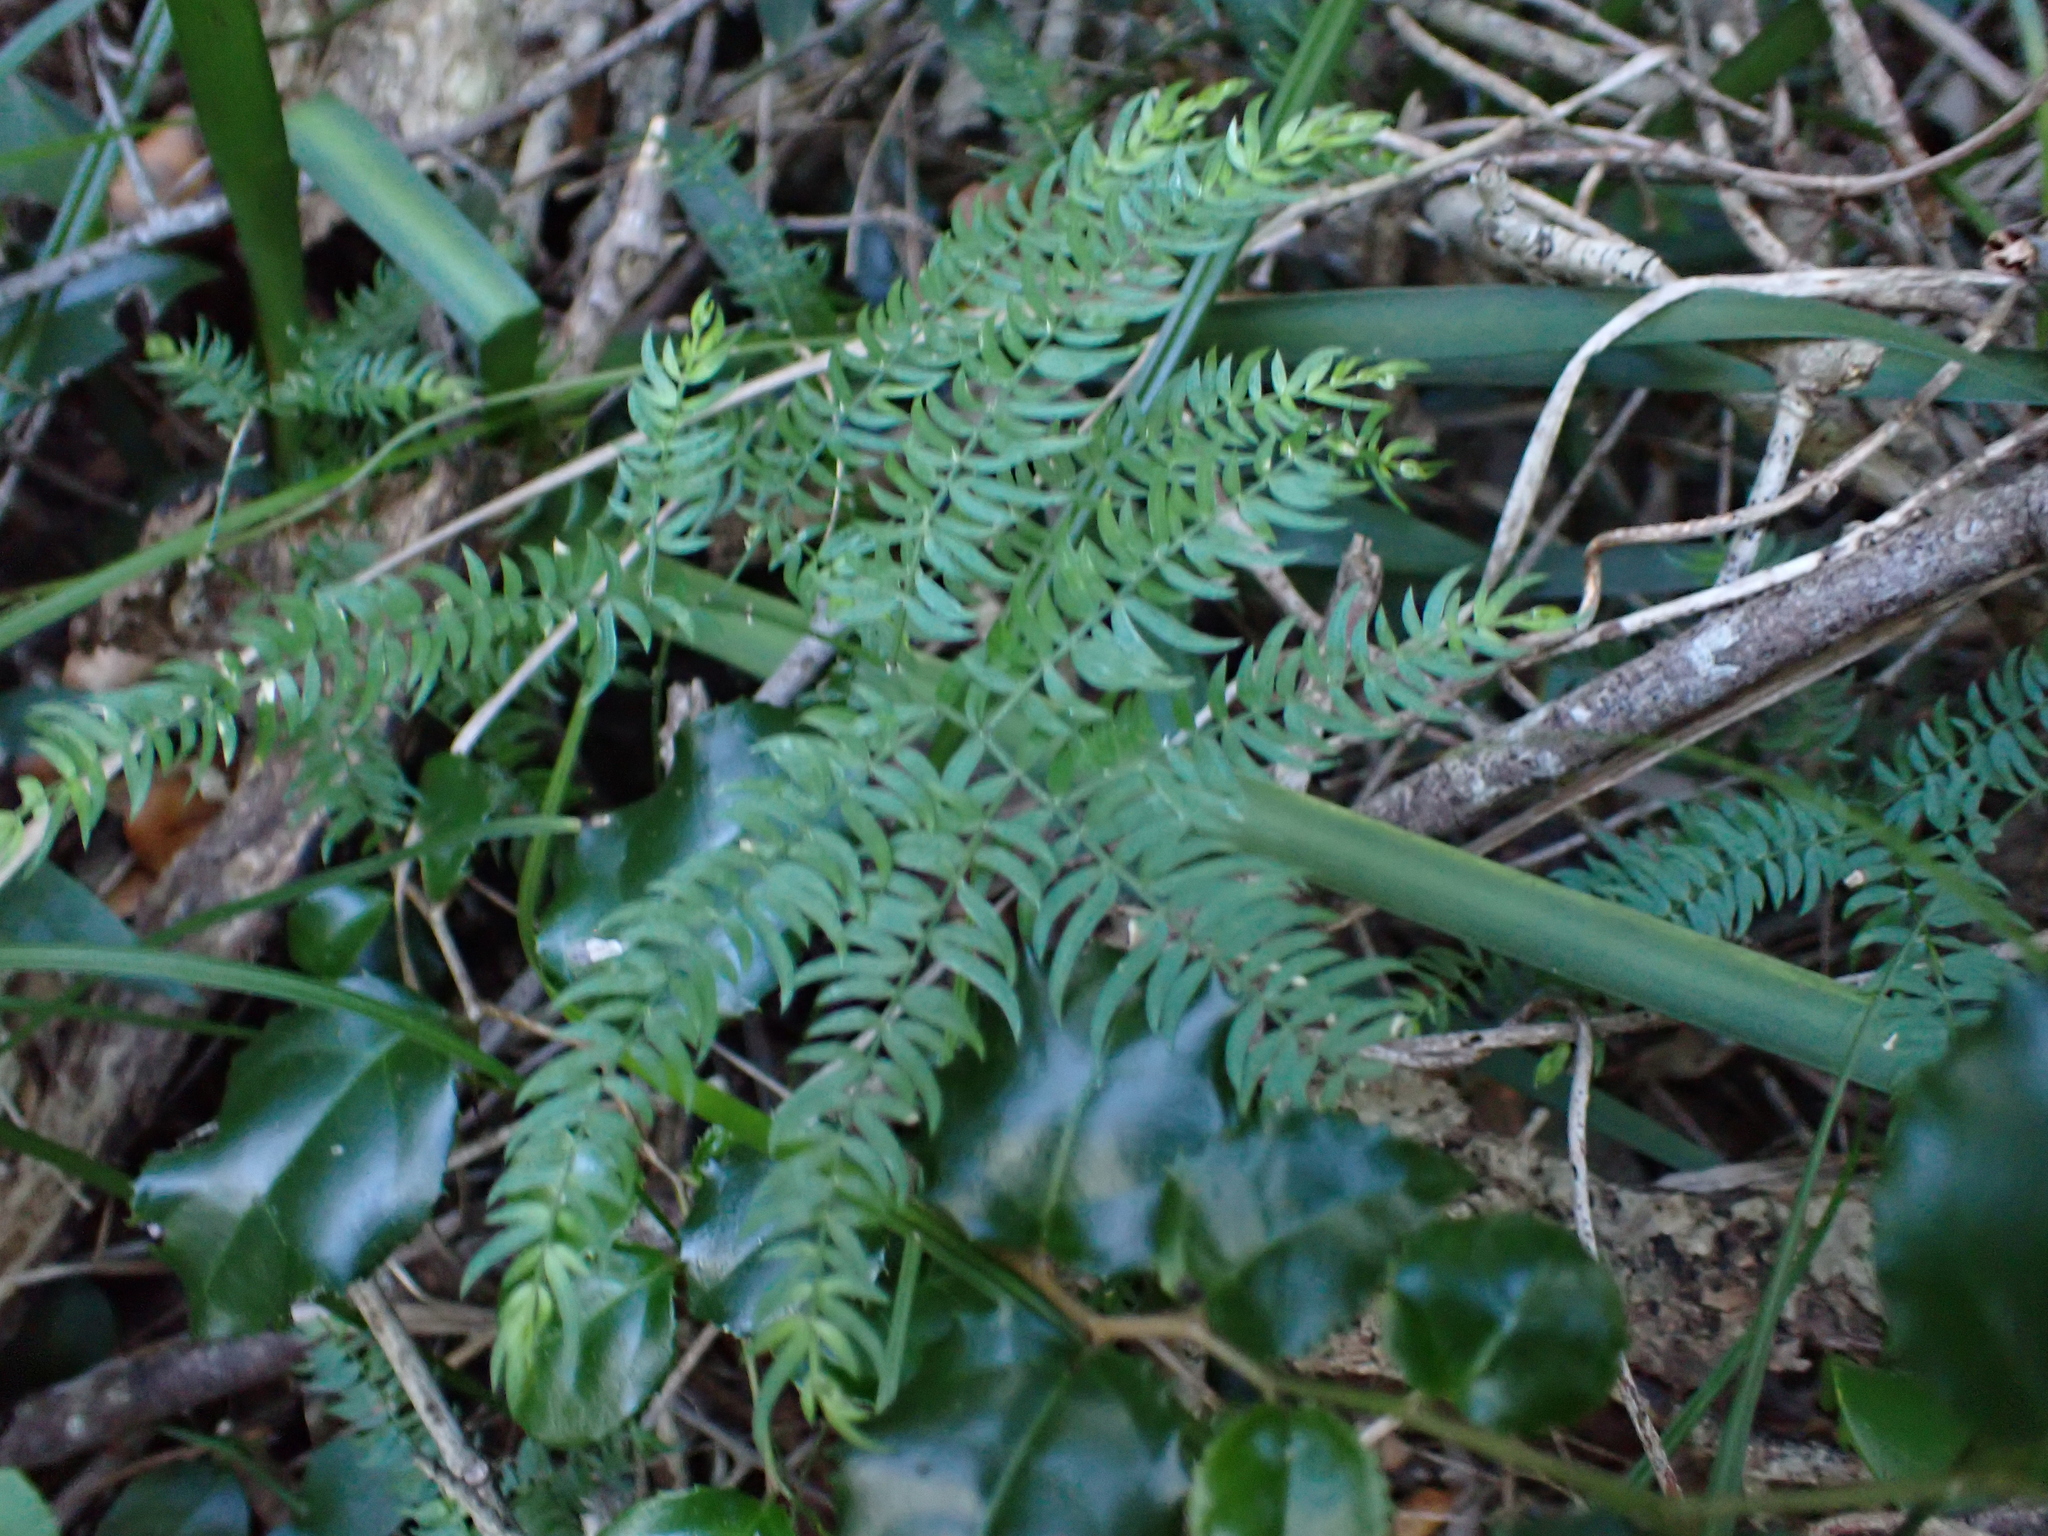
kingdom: Plantae
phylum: Tracheophyta
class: Liliopsida
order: Asparagales
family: Asparagaceae
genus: Asparagus
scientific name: Asparagus scandens
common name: Asparagus-fern
